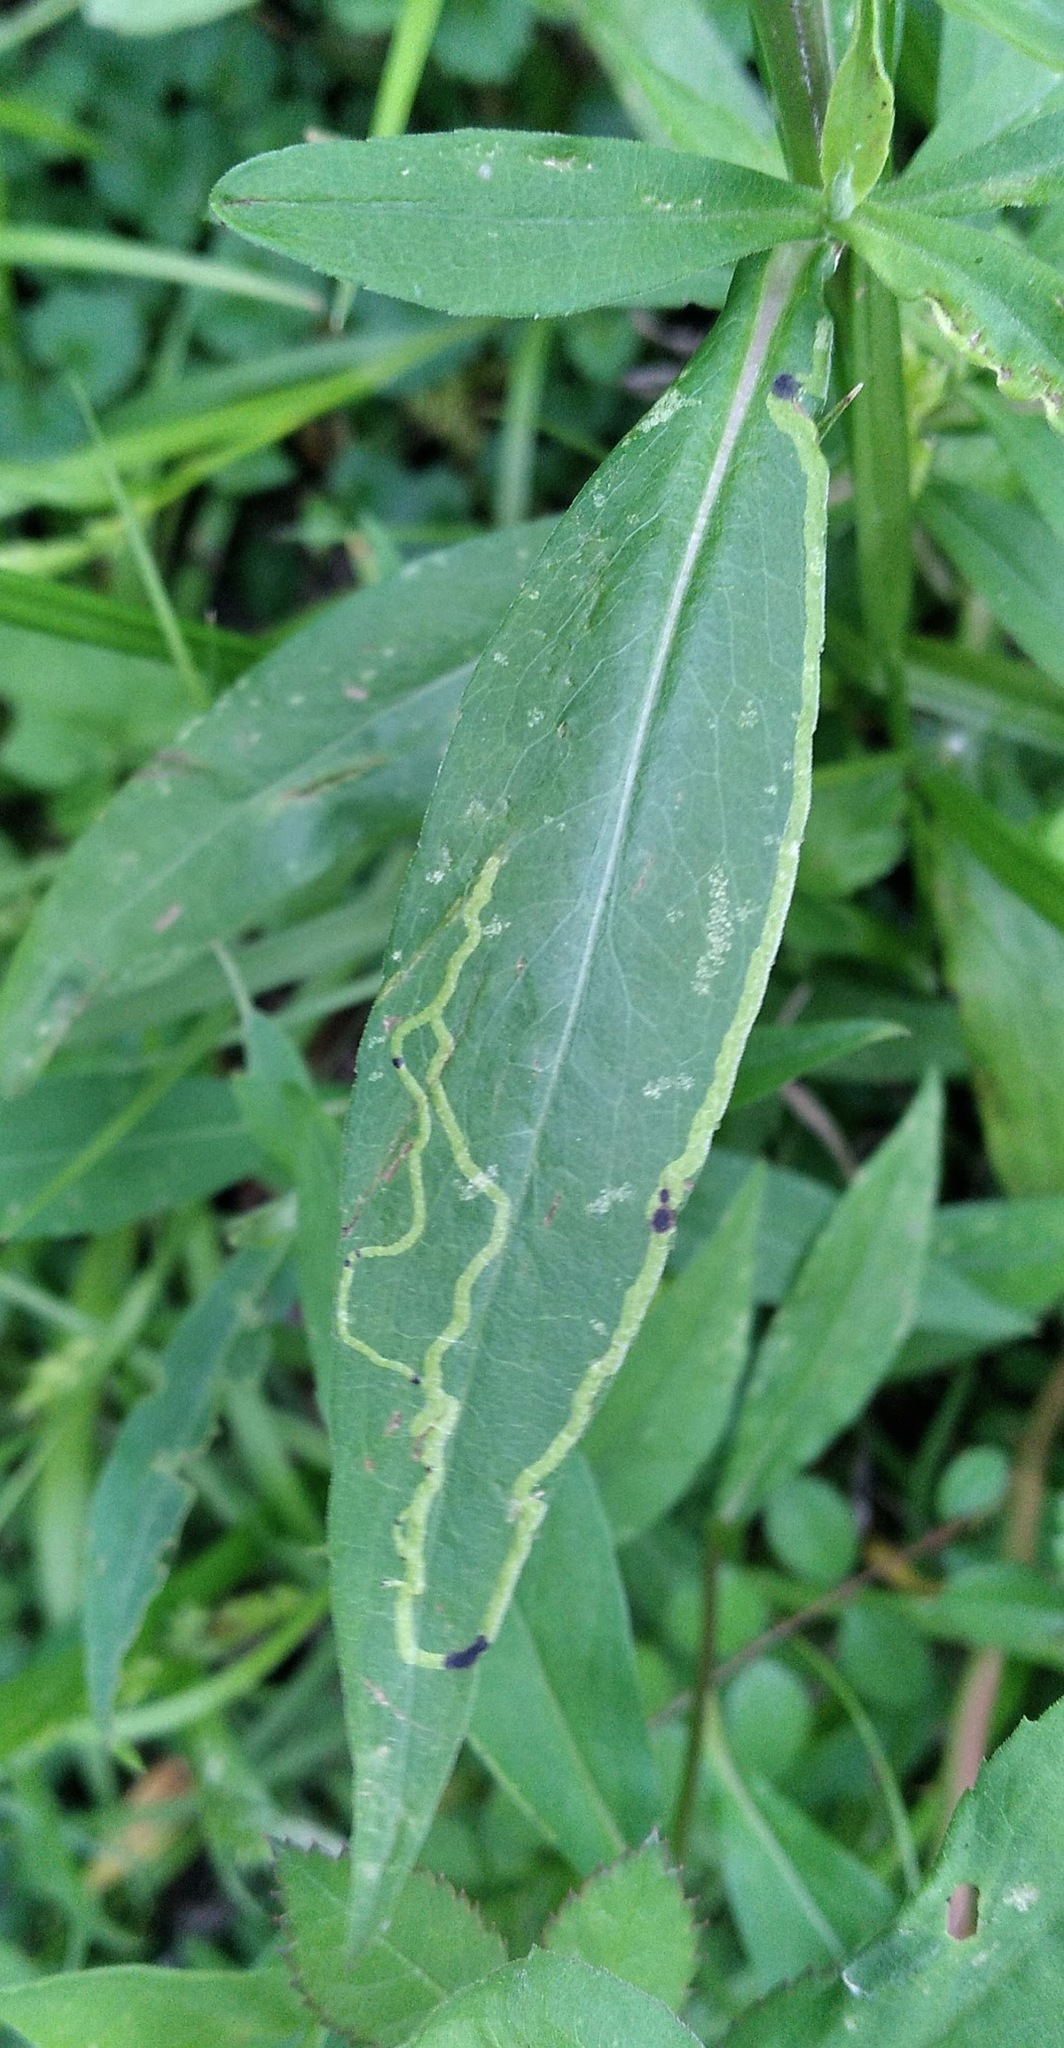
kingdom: Animalia
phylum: Arthropoda
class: Insecta
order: Diptera
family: Agromyzidae
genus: Ophiomyia
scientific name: Ophiomyia parda
